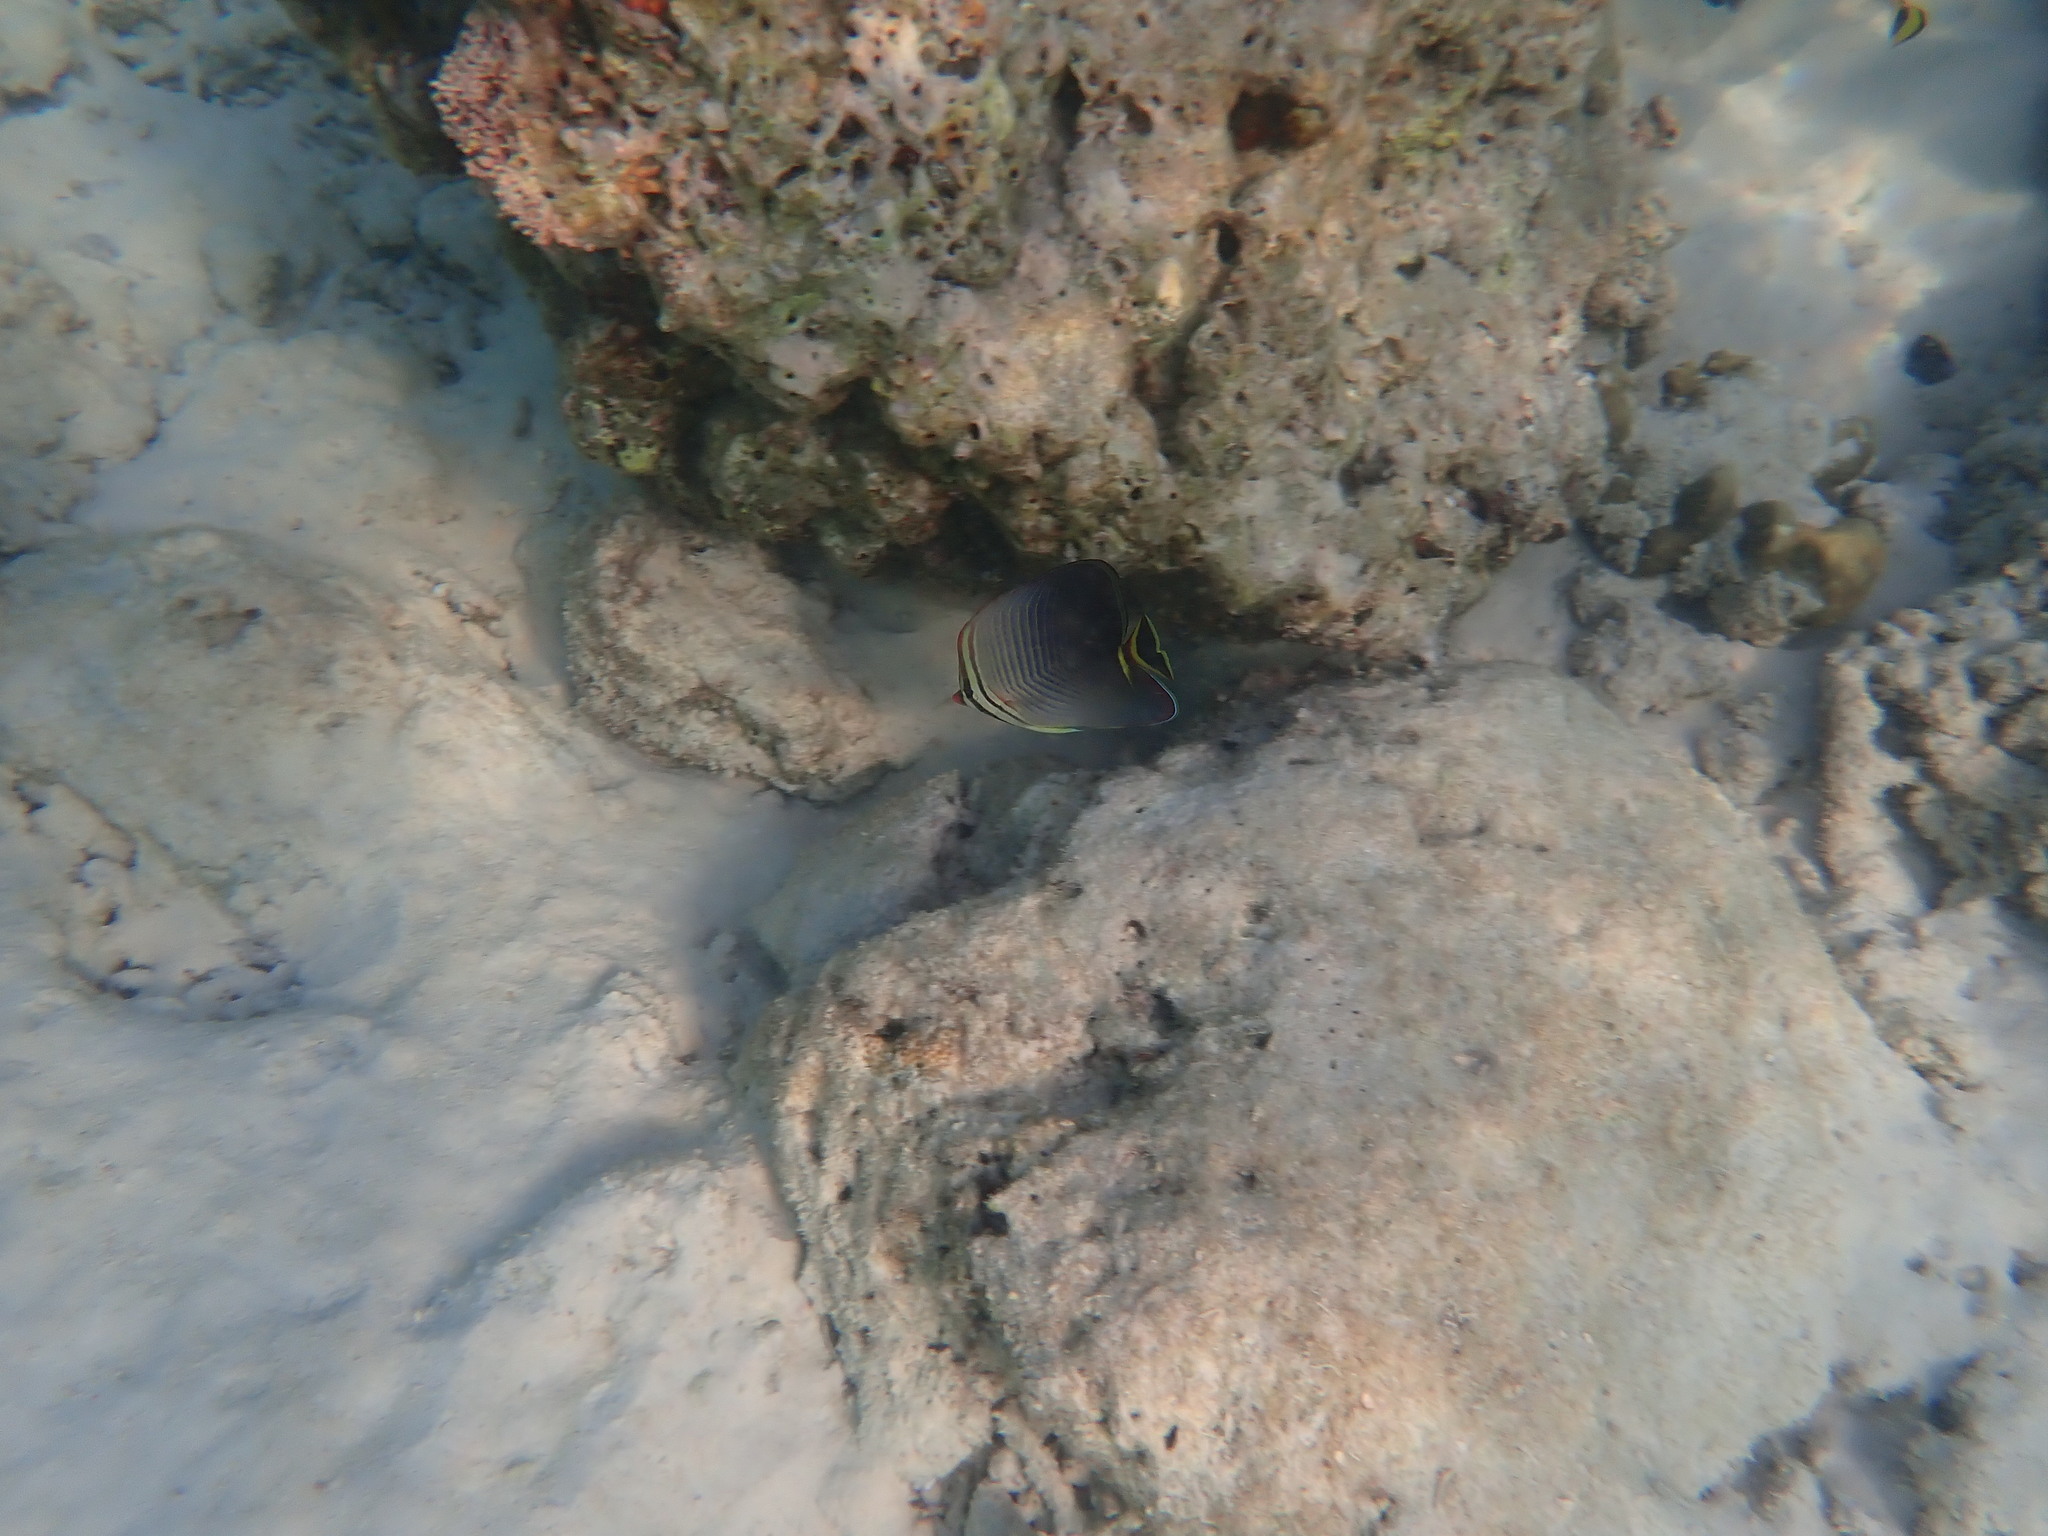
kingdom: Animalia
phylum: Chordata
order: Perciformes
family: Chaetodontidae
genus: Chaetodon
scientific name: Chaetodon triangulum
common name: Triangular butterflyfish
